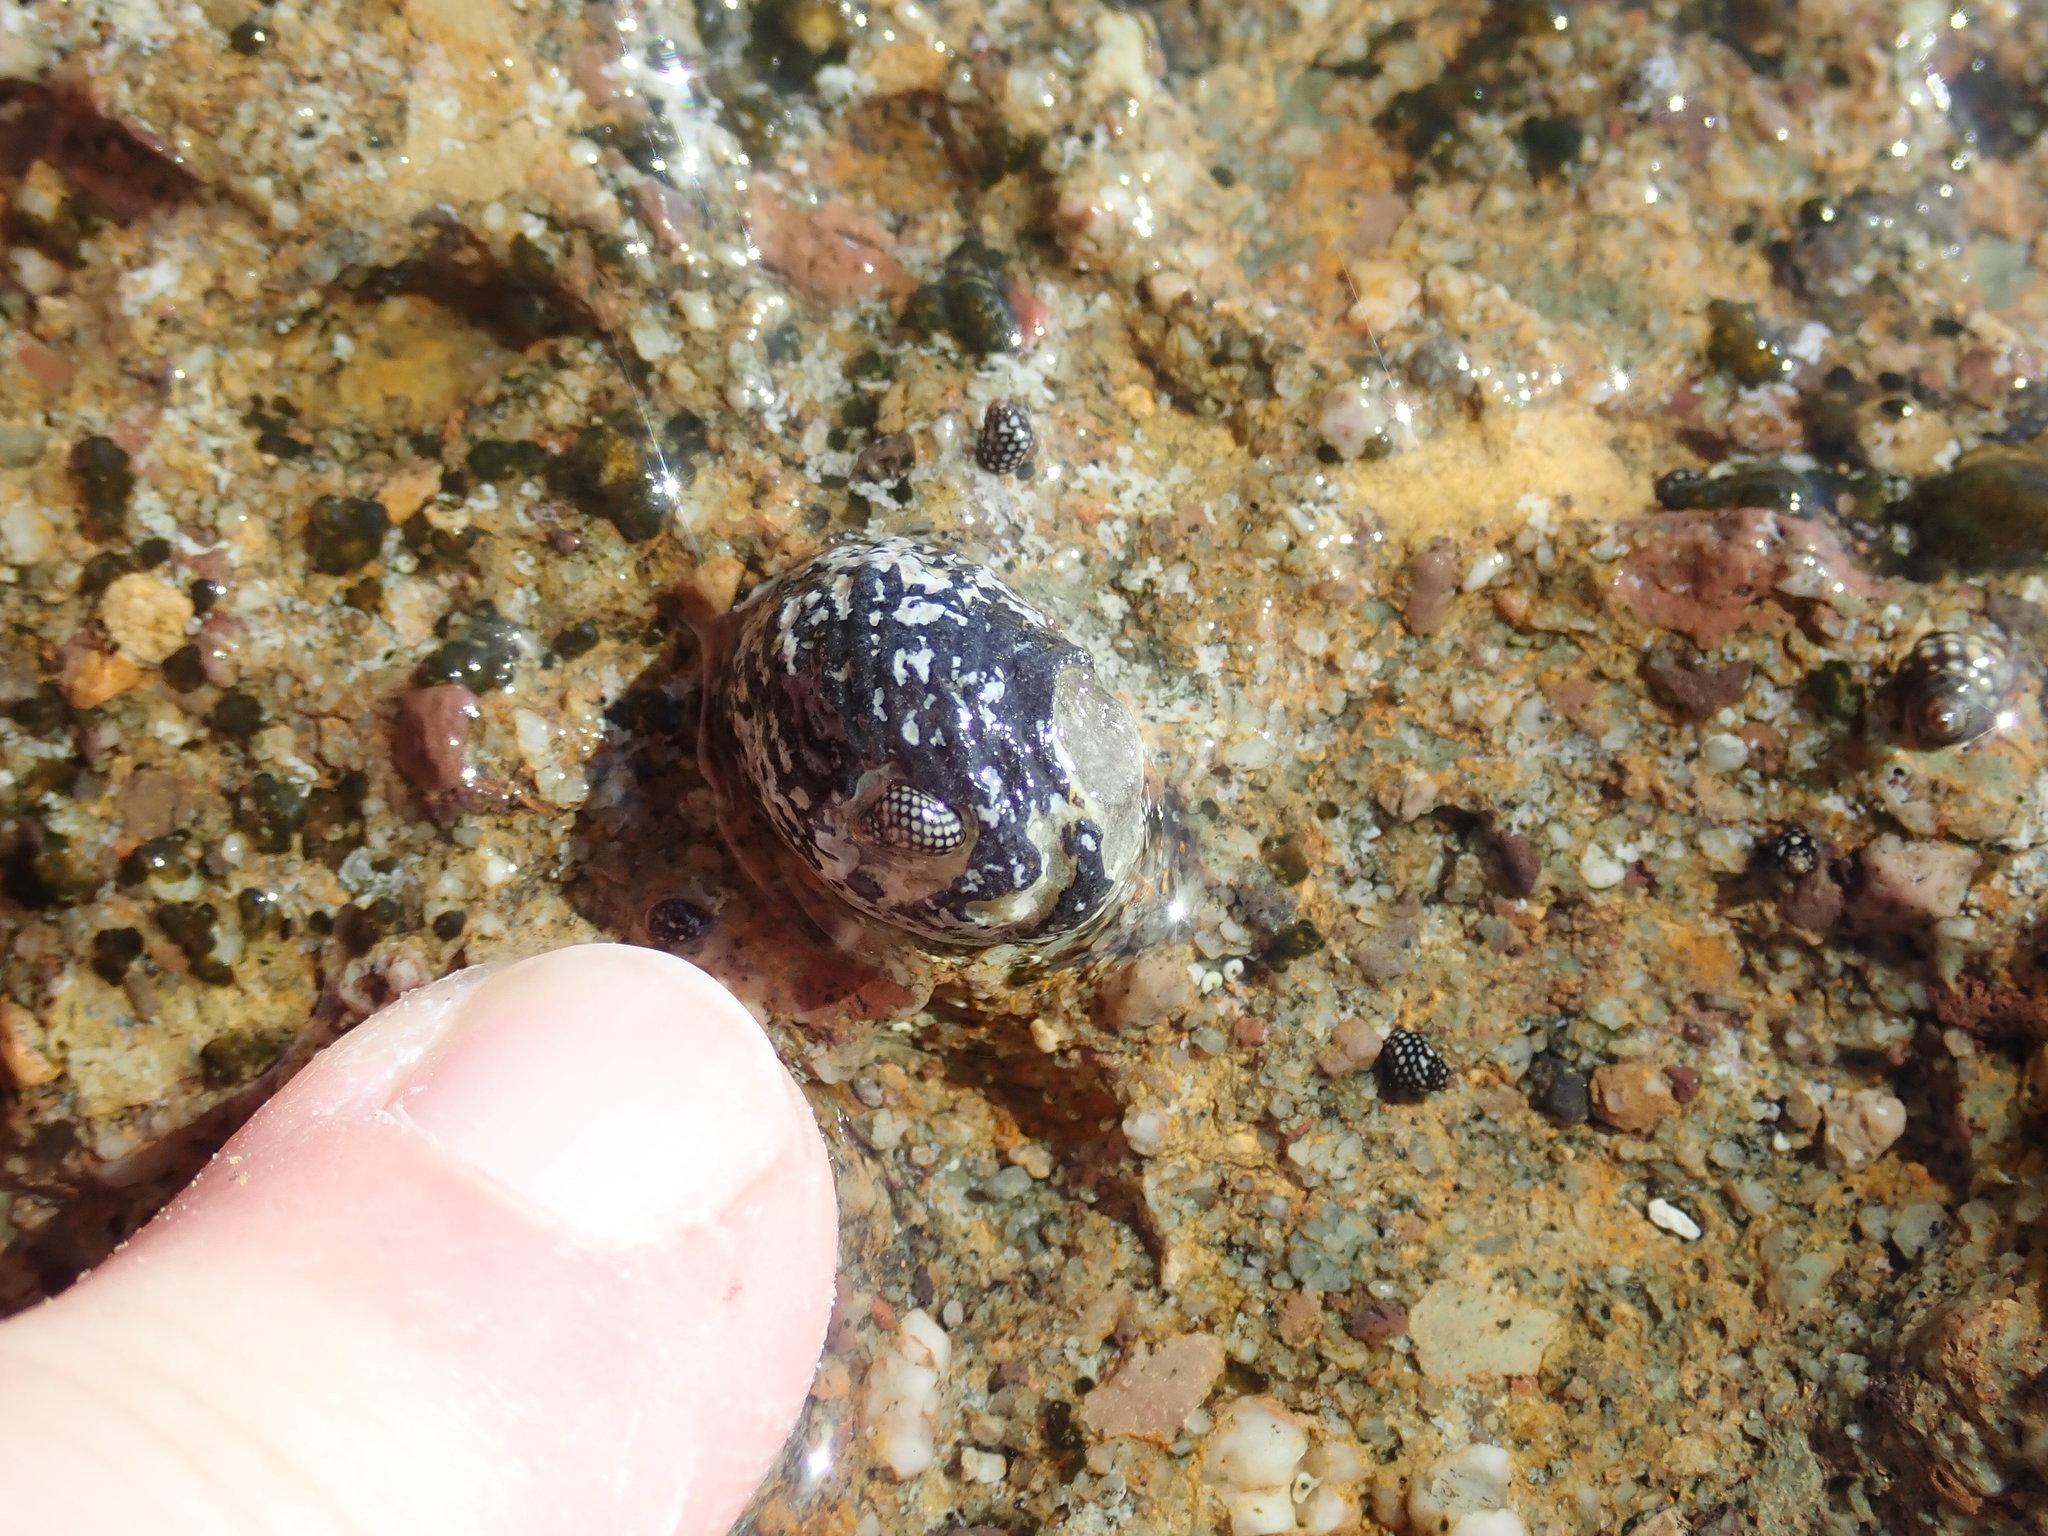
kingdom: Animalia
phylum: Mollusca
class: Gastropoda
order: Cycloneritida
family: Neritidae
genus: Nerita
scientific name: Nerita tessellata
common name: Checkered nerite
